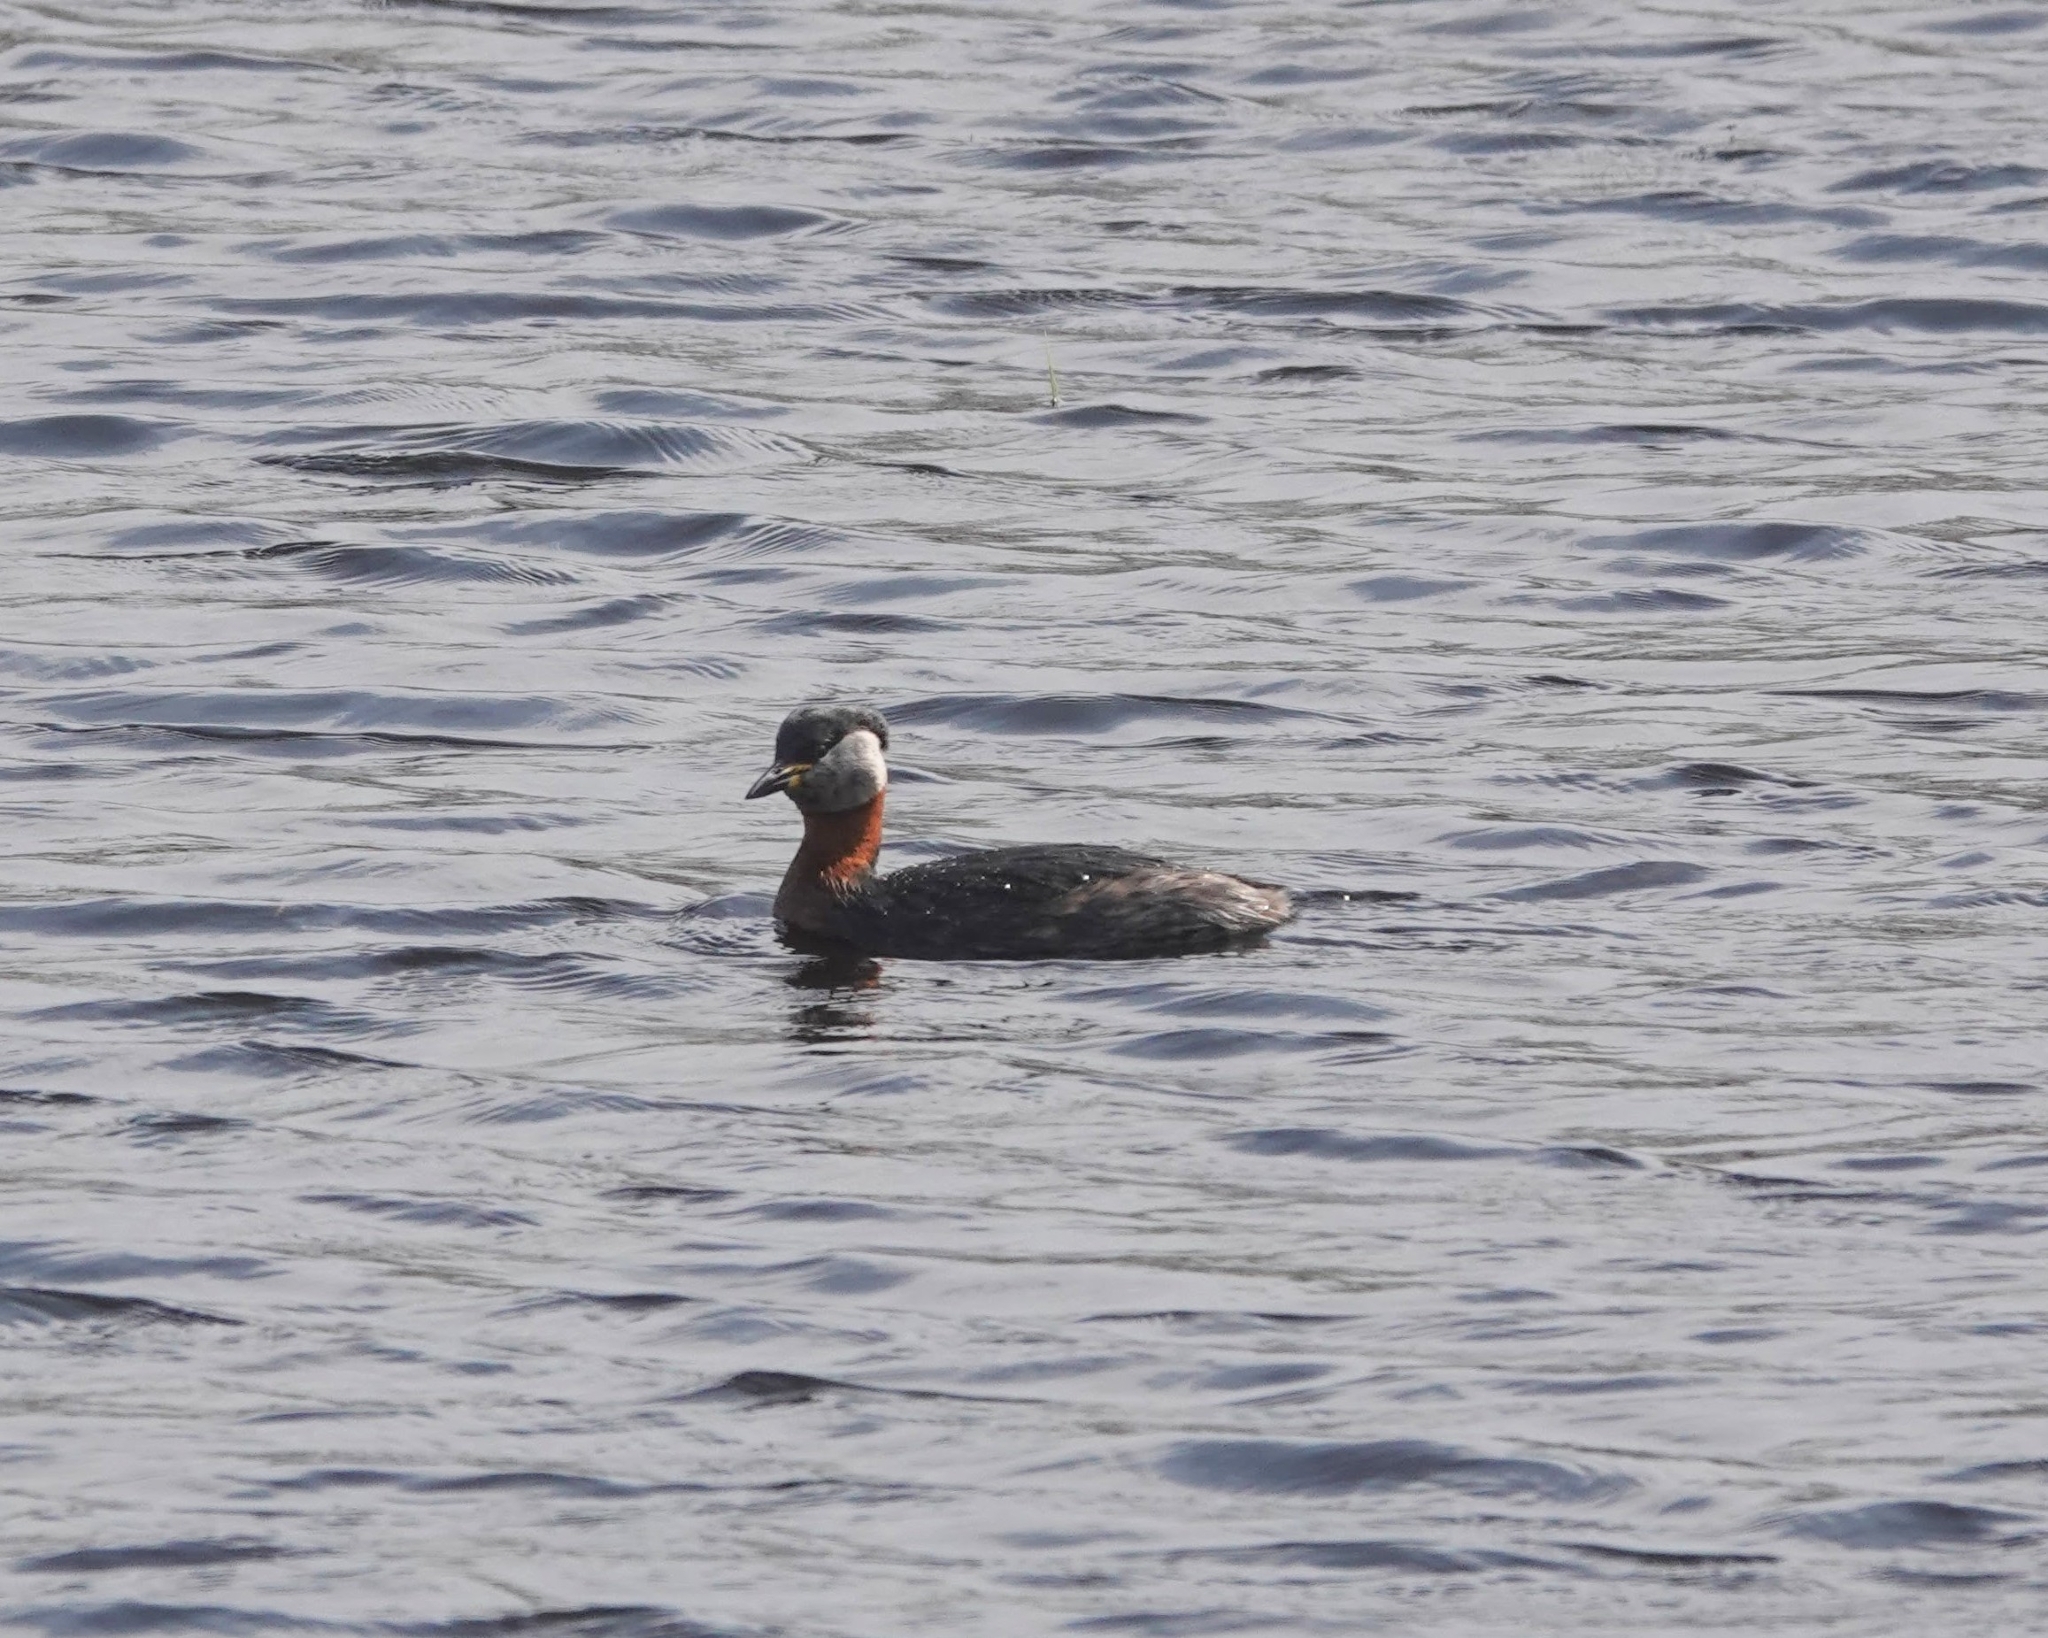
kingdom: Animalia
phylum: Chordata
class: Aves
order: Podicipediformes
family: Podicipedidae
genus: Podiceps
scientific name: Podiceps grisegena
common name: Red-necked grebe
